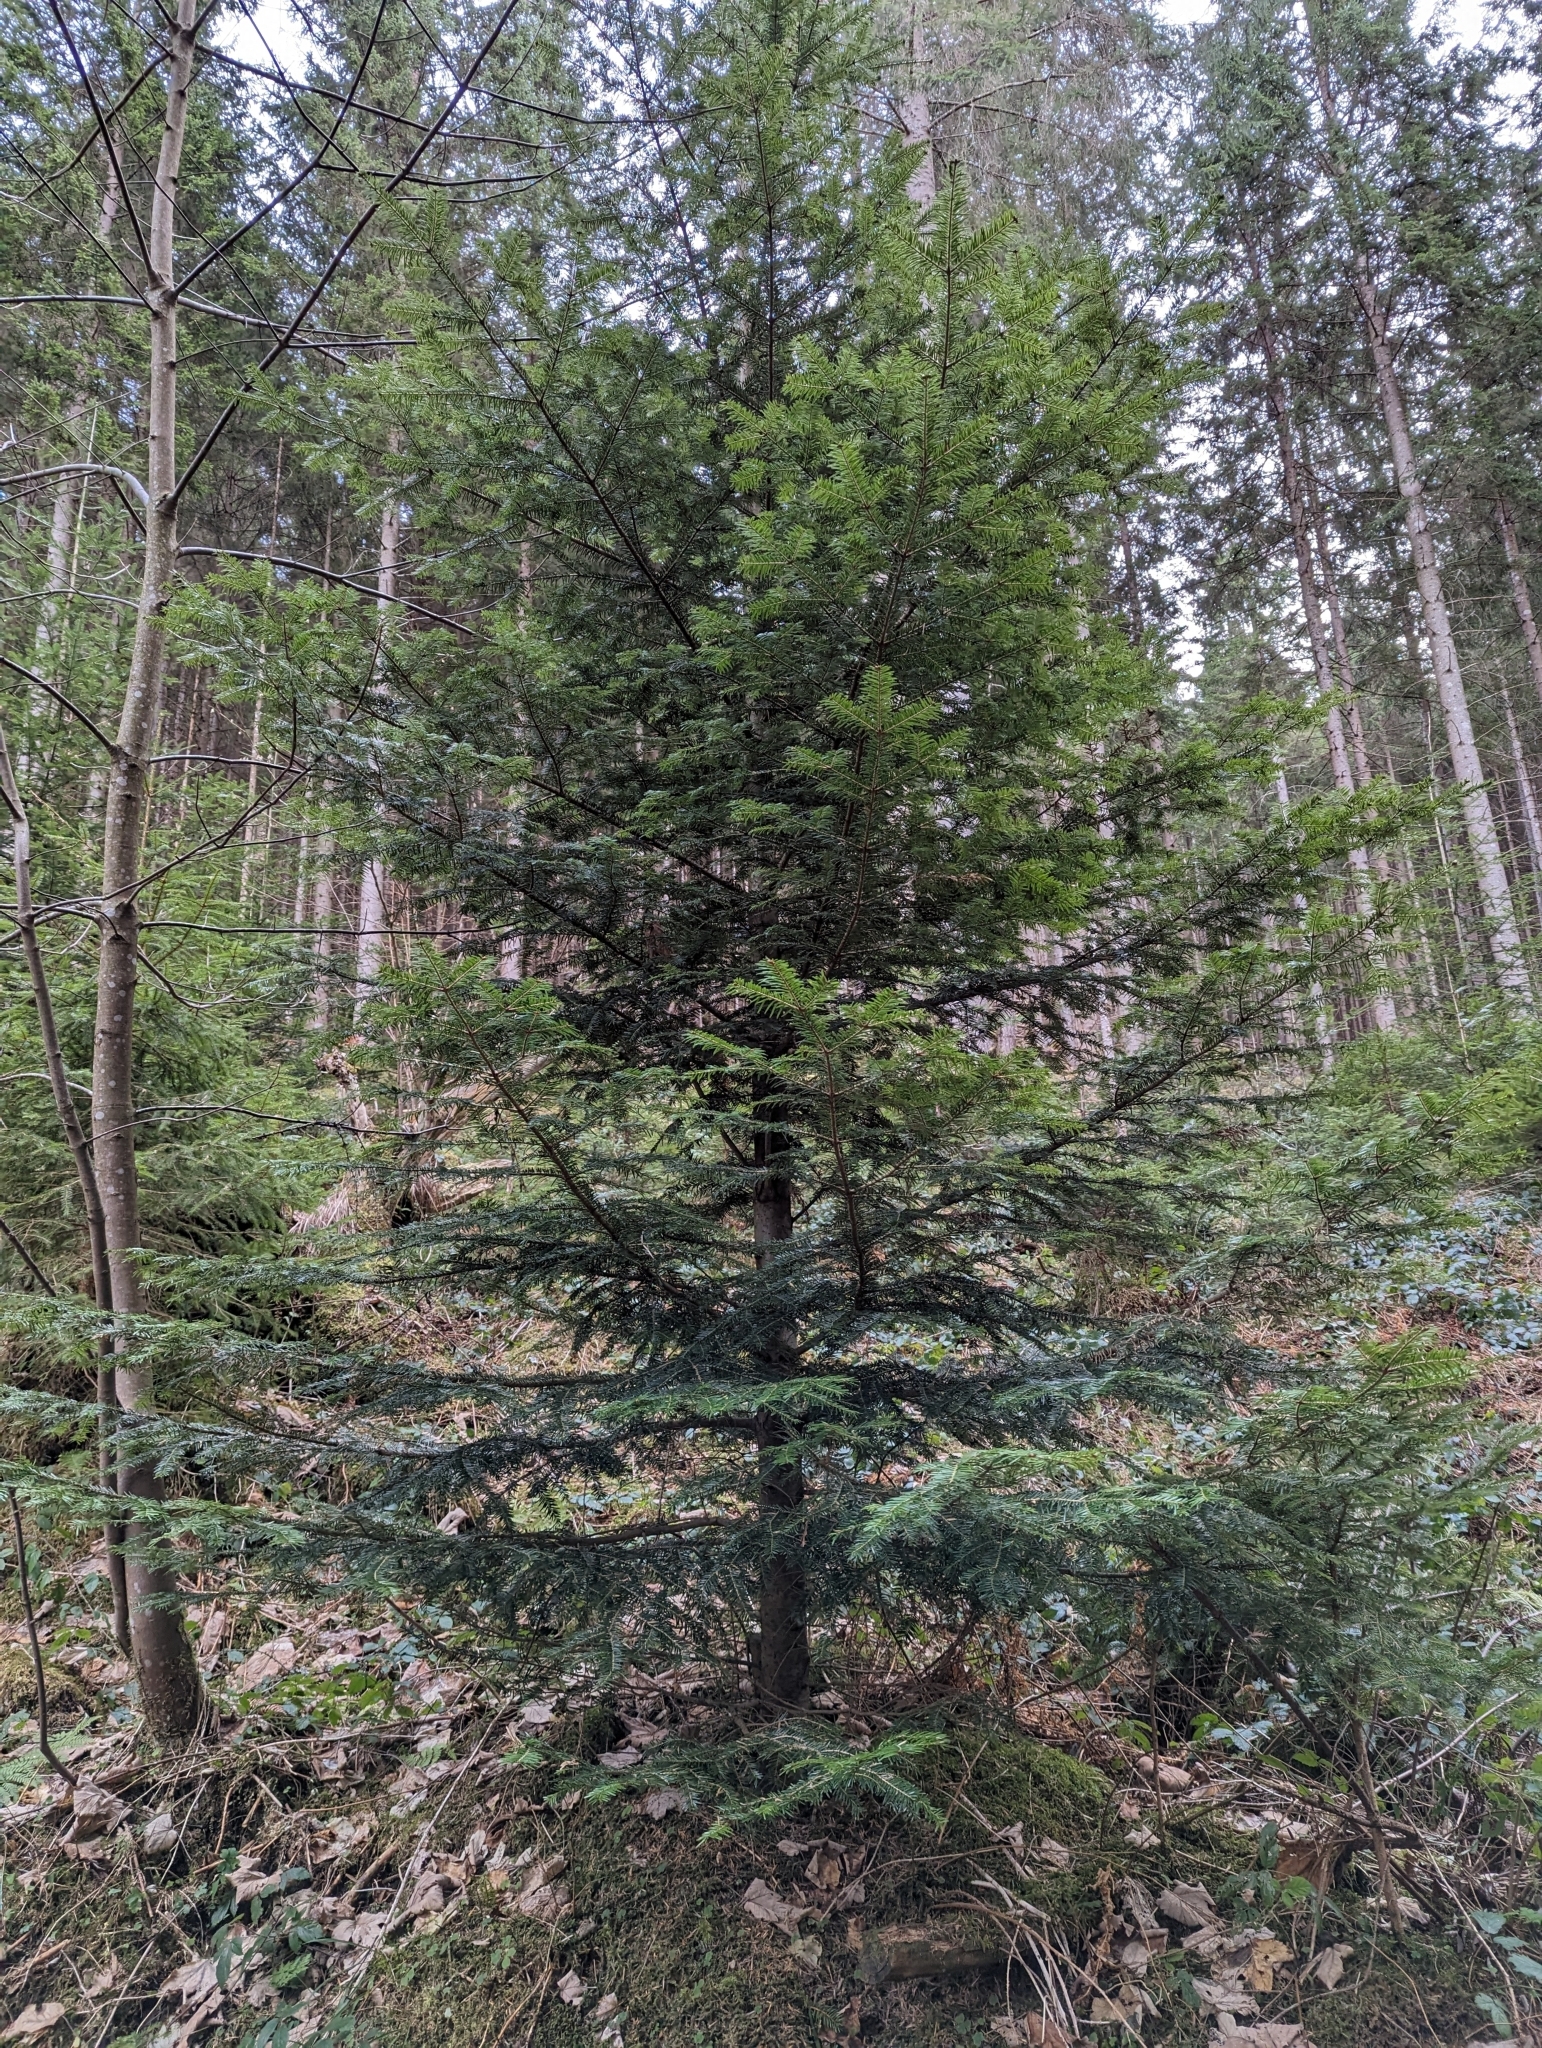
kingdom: Plantae
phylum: Tracheophyta
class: Pinopsida
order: Pinales
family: Pinaceae
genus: Abies
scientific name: Abies alba
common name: Silver fir
